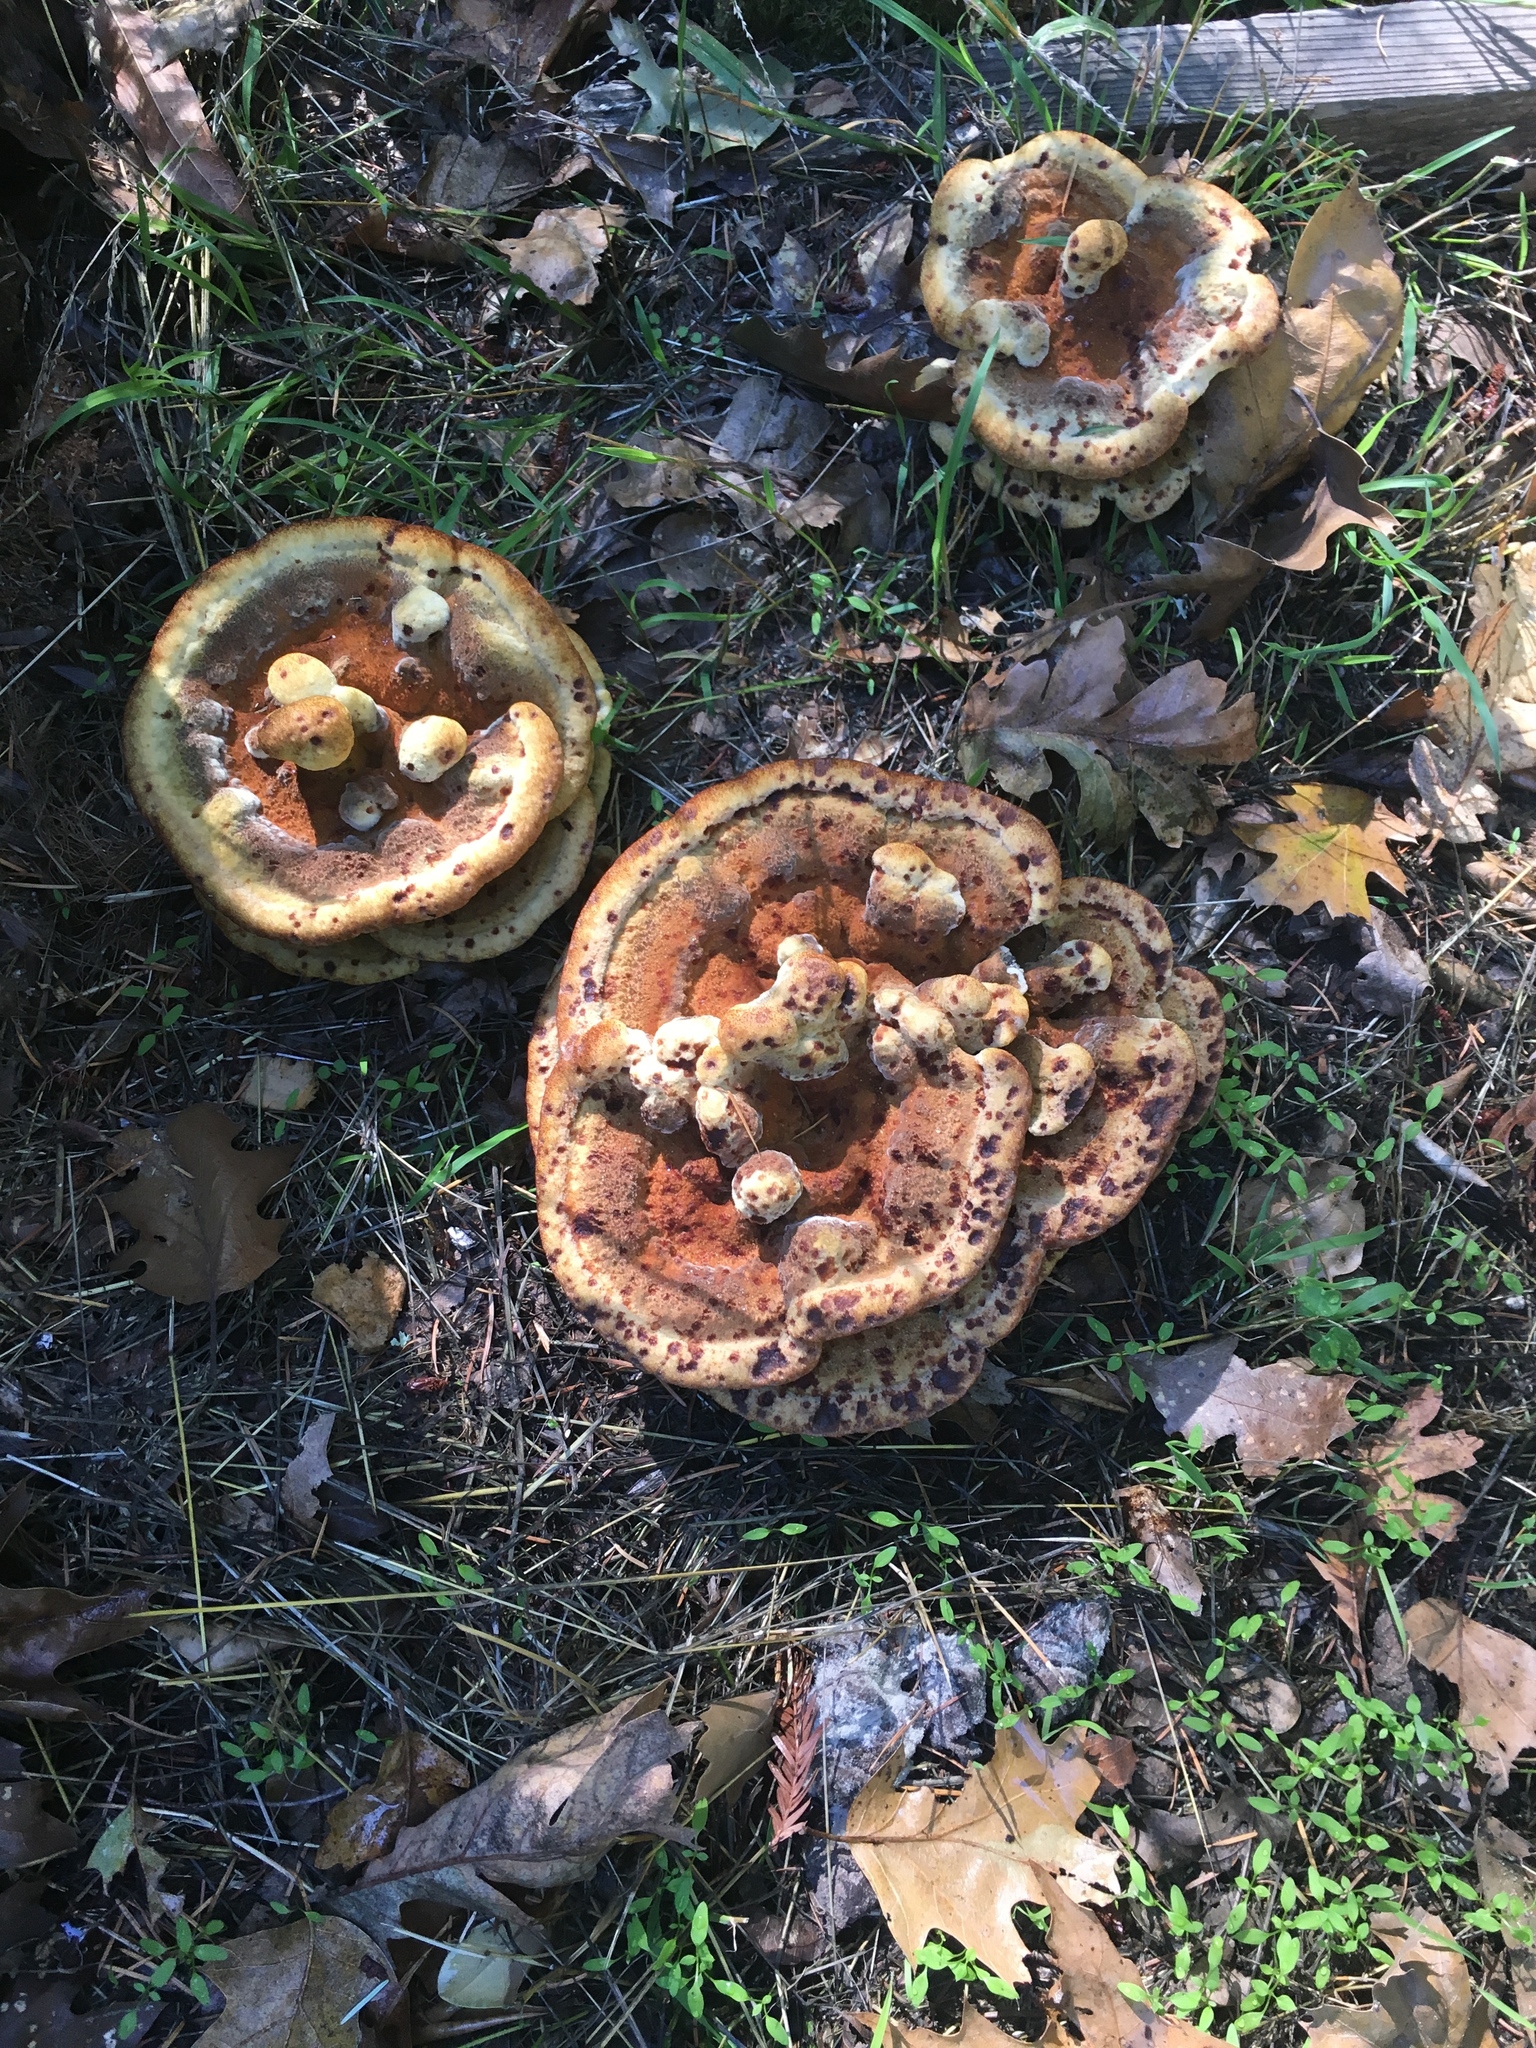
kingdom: Fungi
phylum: Basidiomycota
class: Agaricomycetes
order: Polyporales
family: Laetiporaceae
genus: Phaeolus
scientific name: Phaeolus schweinitzii
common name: Dyer's mazegill
